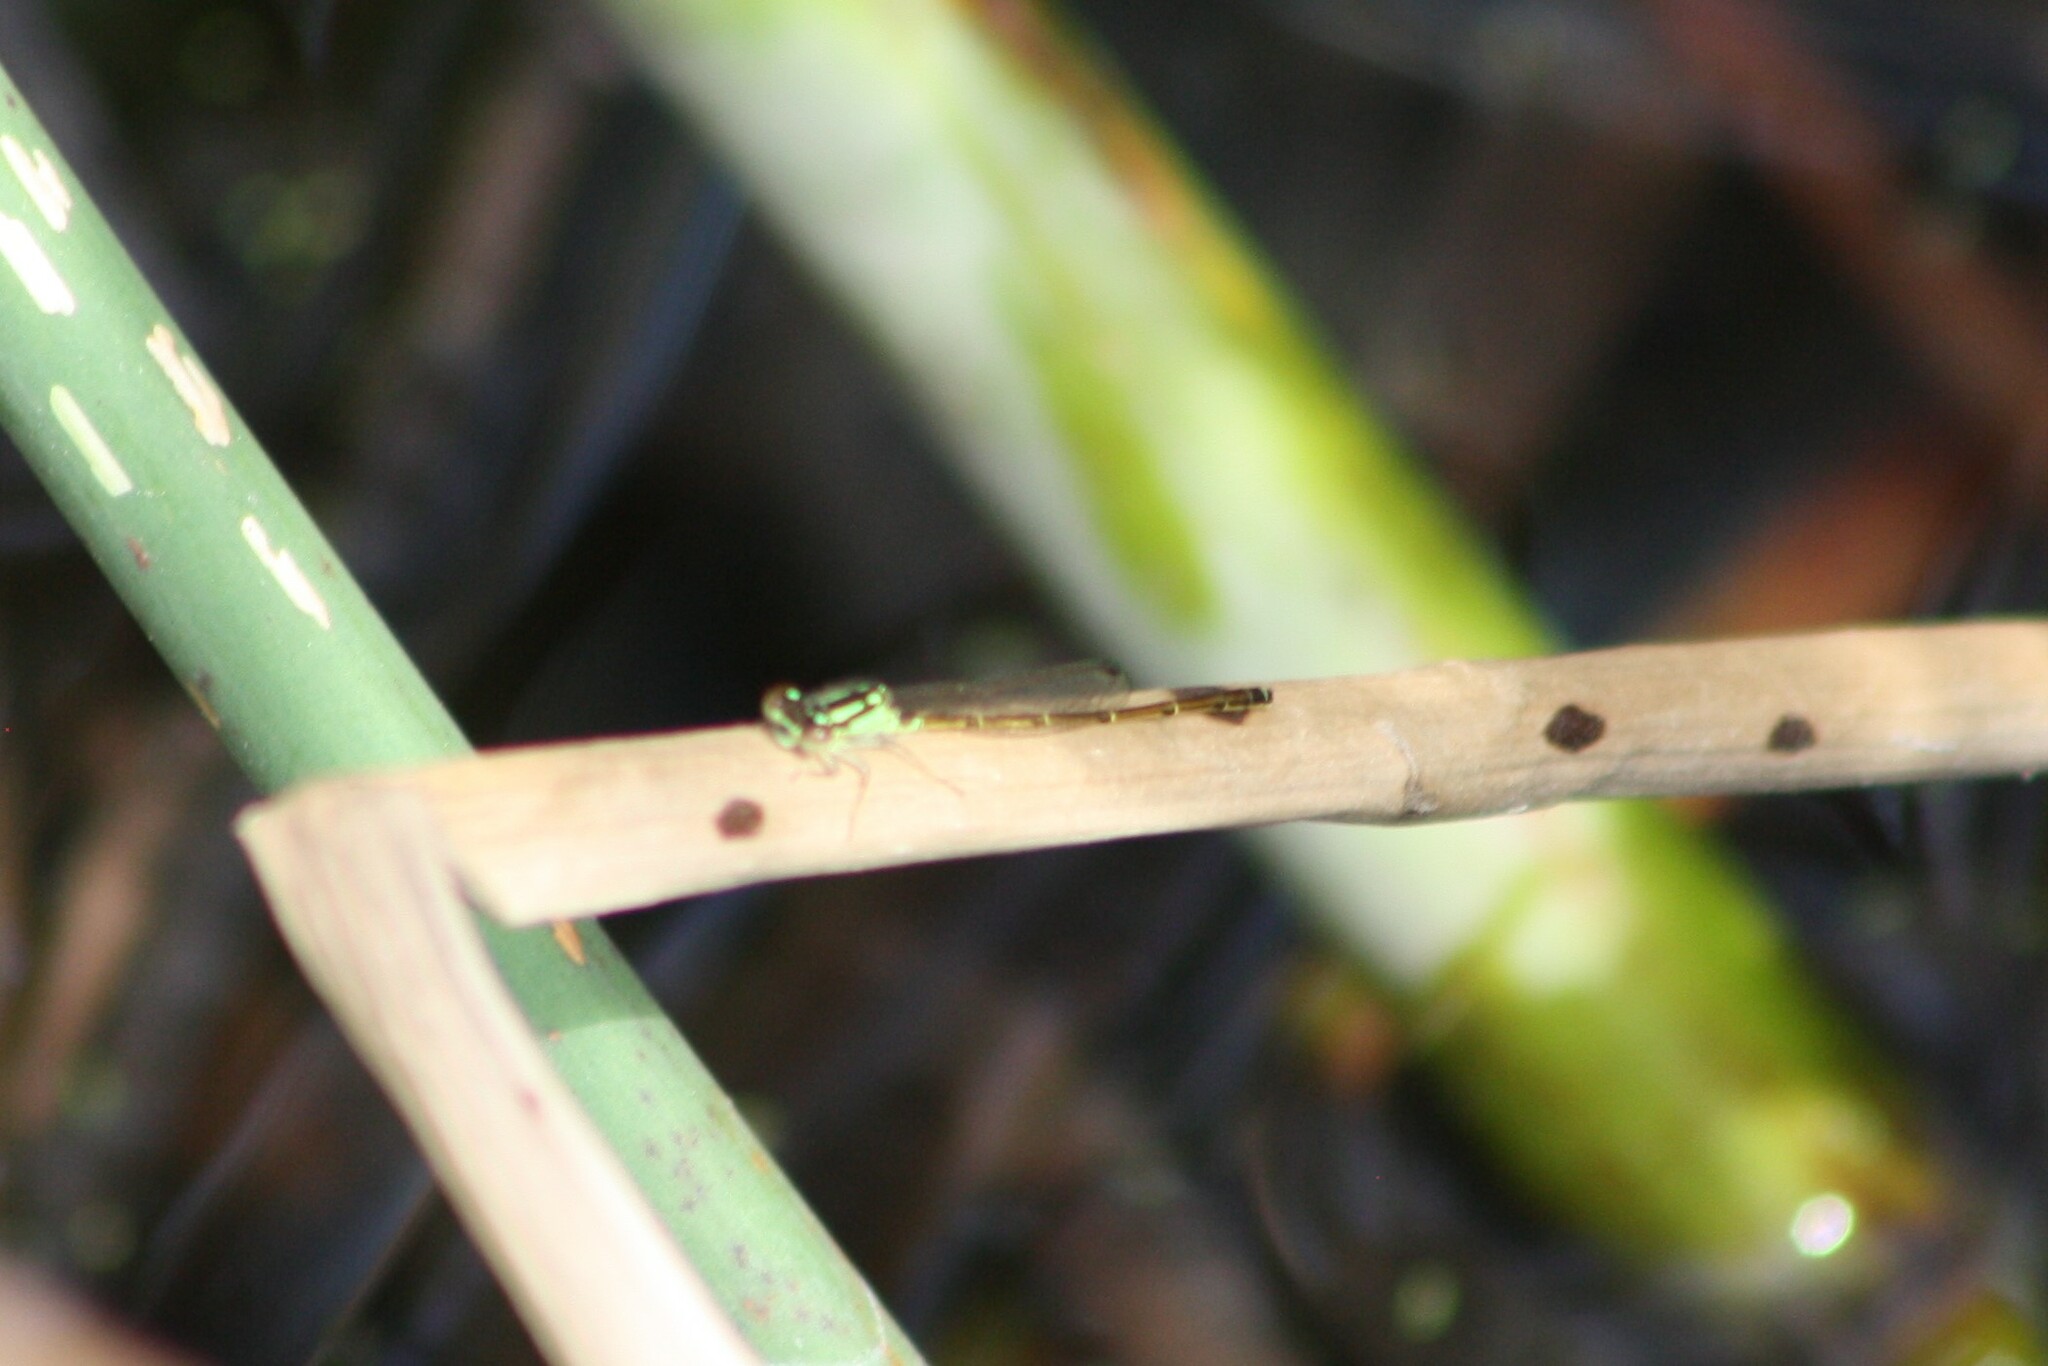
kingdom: Animalia
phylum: Arthropoda
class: Insecta
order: Odonata
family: Coenagrionidae
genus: Ischnura
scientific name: Ischnura posita
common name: Fragile forktail
